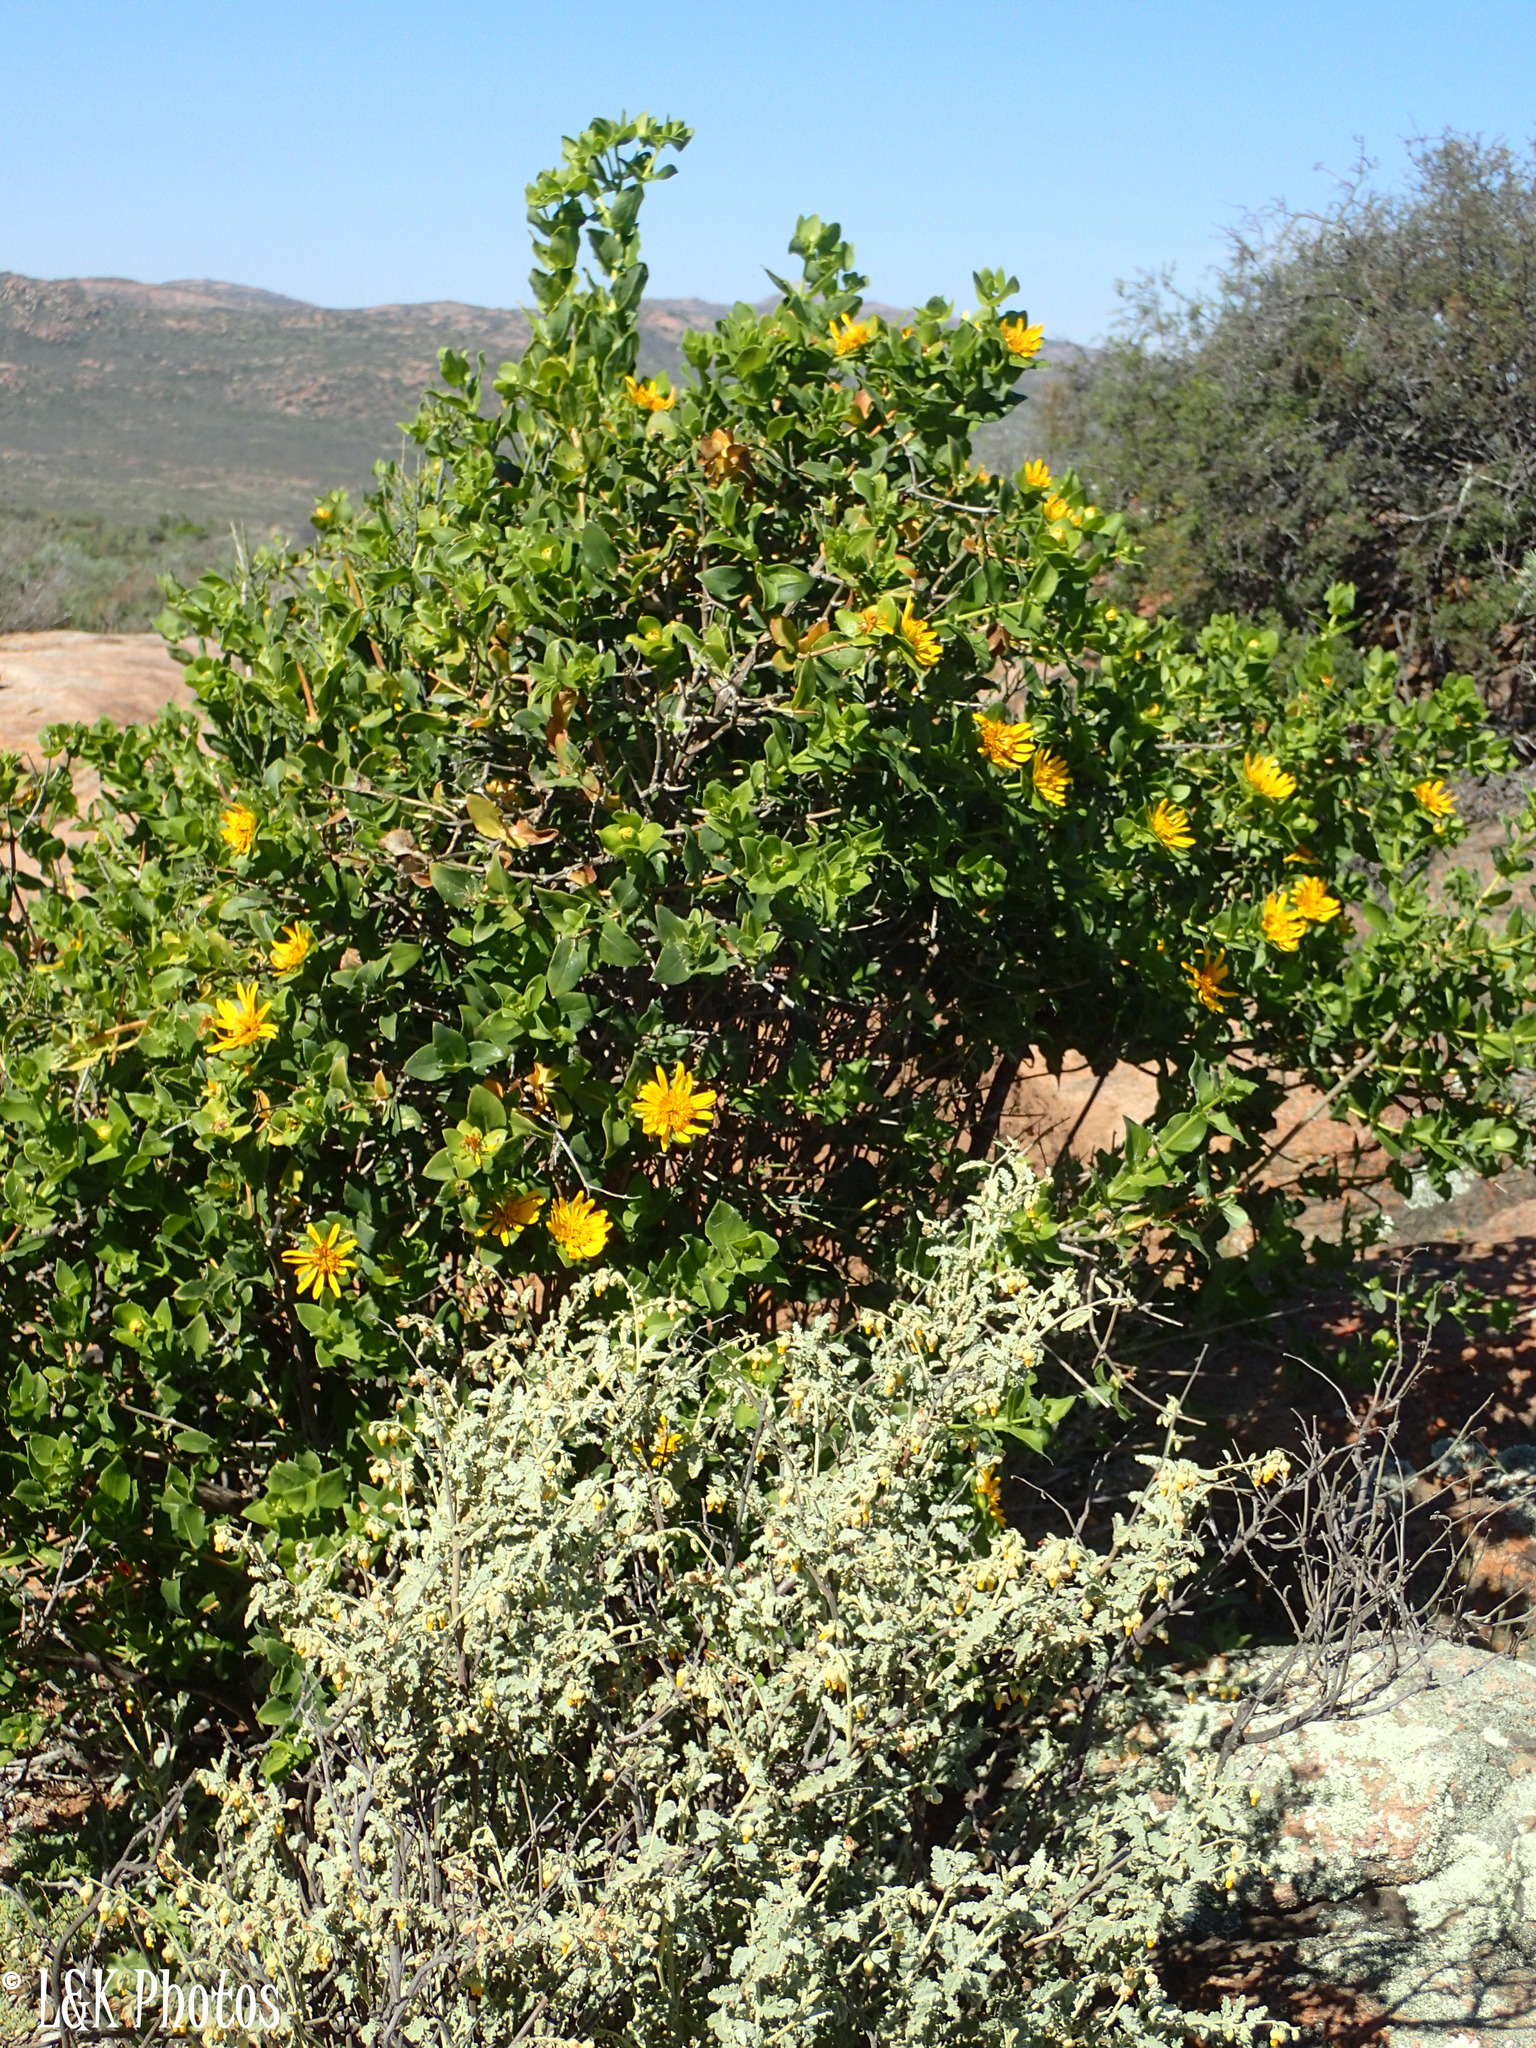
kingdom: Plantae
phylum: Tracheophyta
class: Magnoliopsida
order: Asterales
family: Asteraceae
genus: Didelta
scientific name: Didelta spinosa
